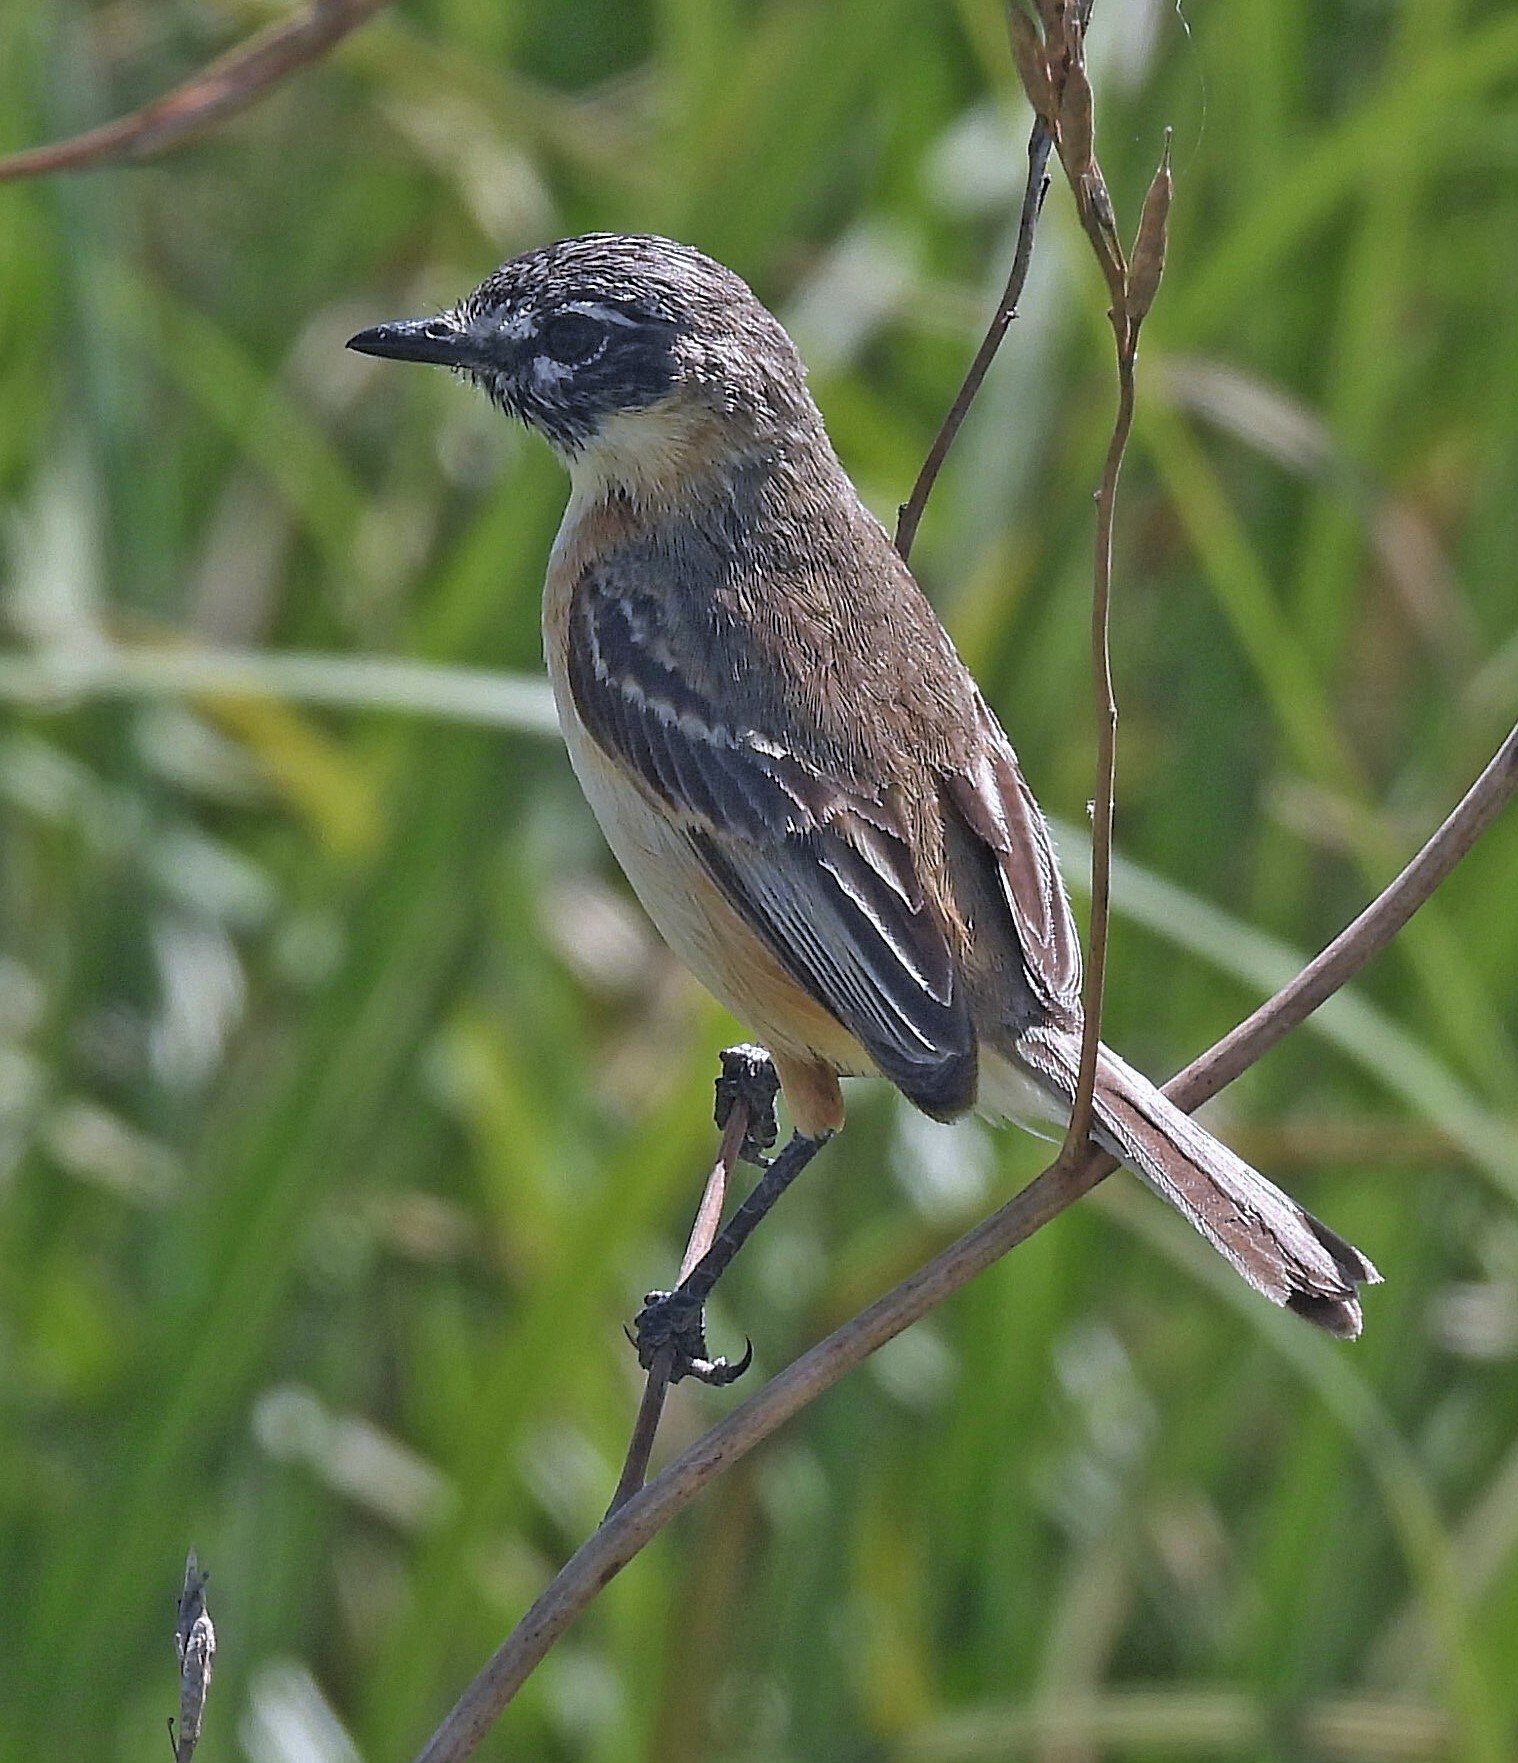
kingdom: Animalia
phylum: Chordata
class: Aves
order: Passeriformes
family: Tyrannidae
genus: Polystictus
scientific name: Polystictus pectoralis
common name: Bearded tachuri
